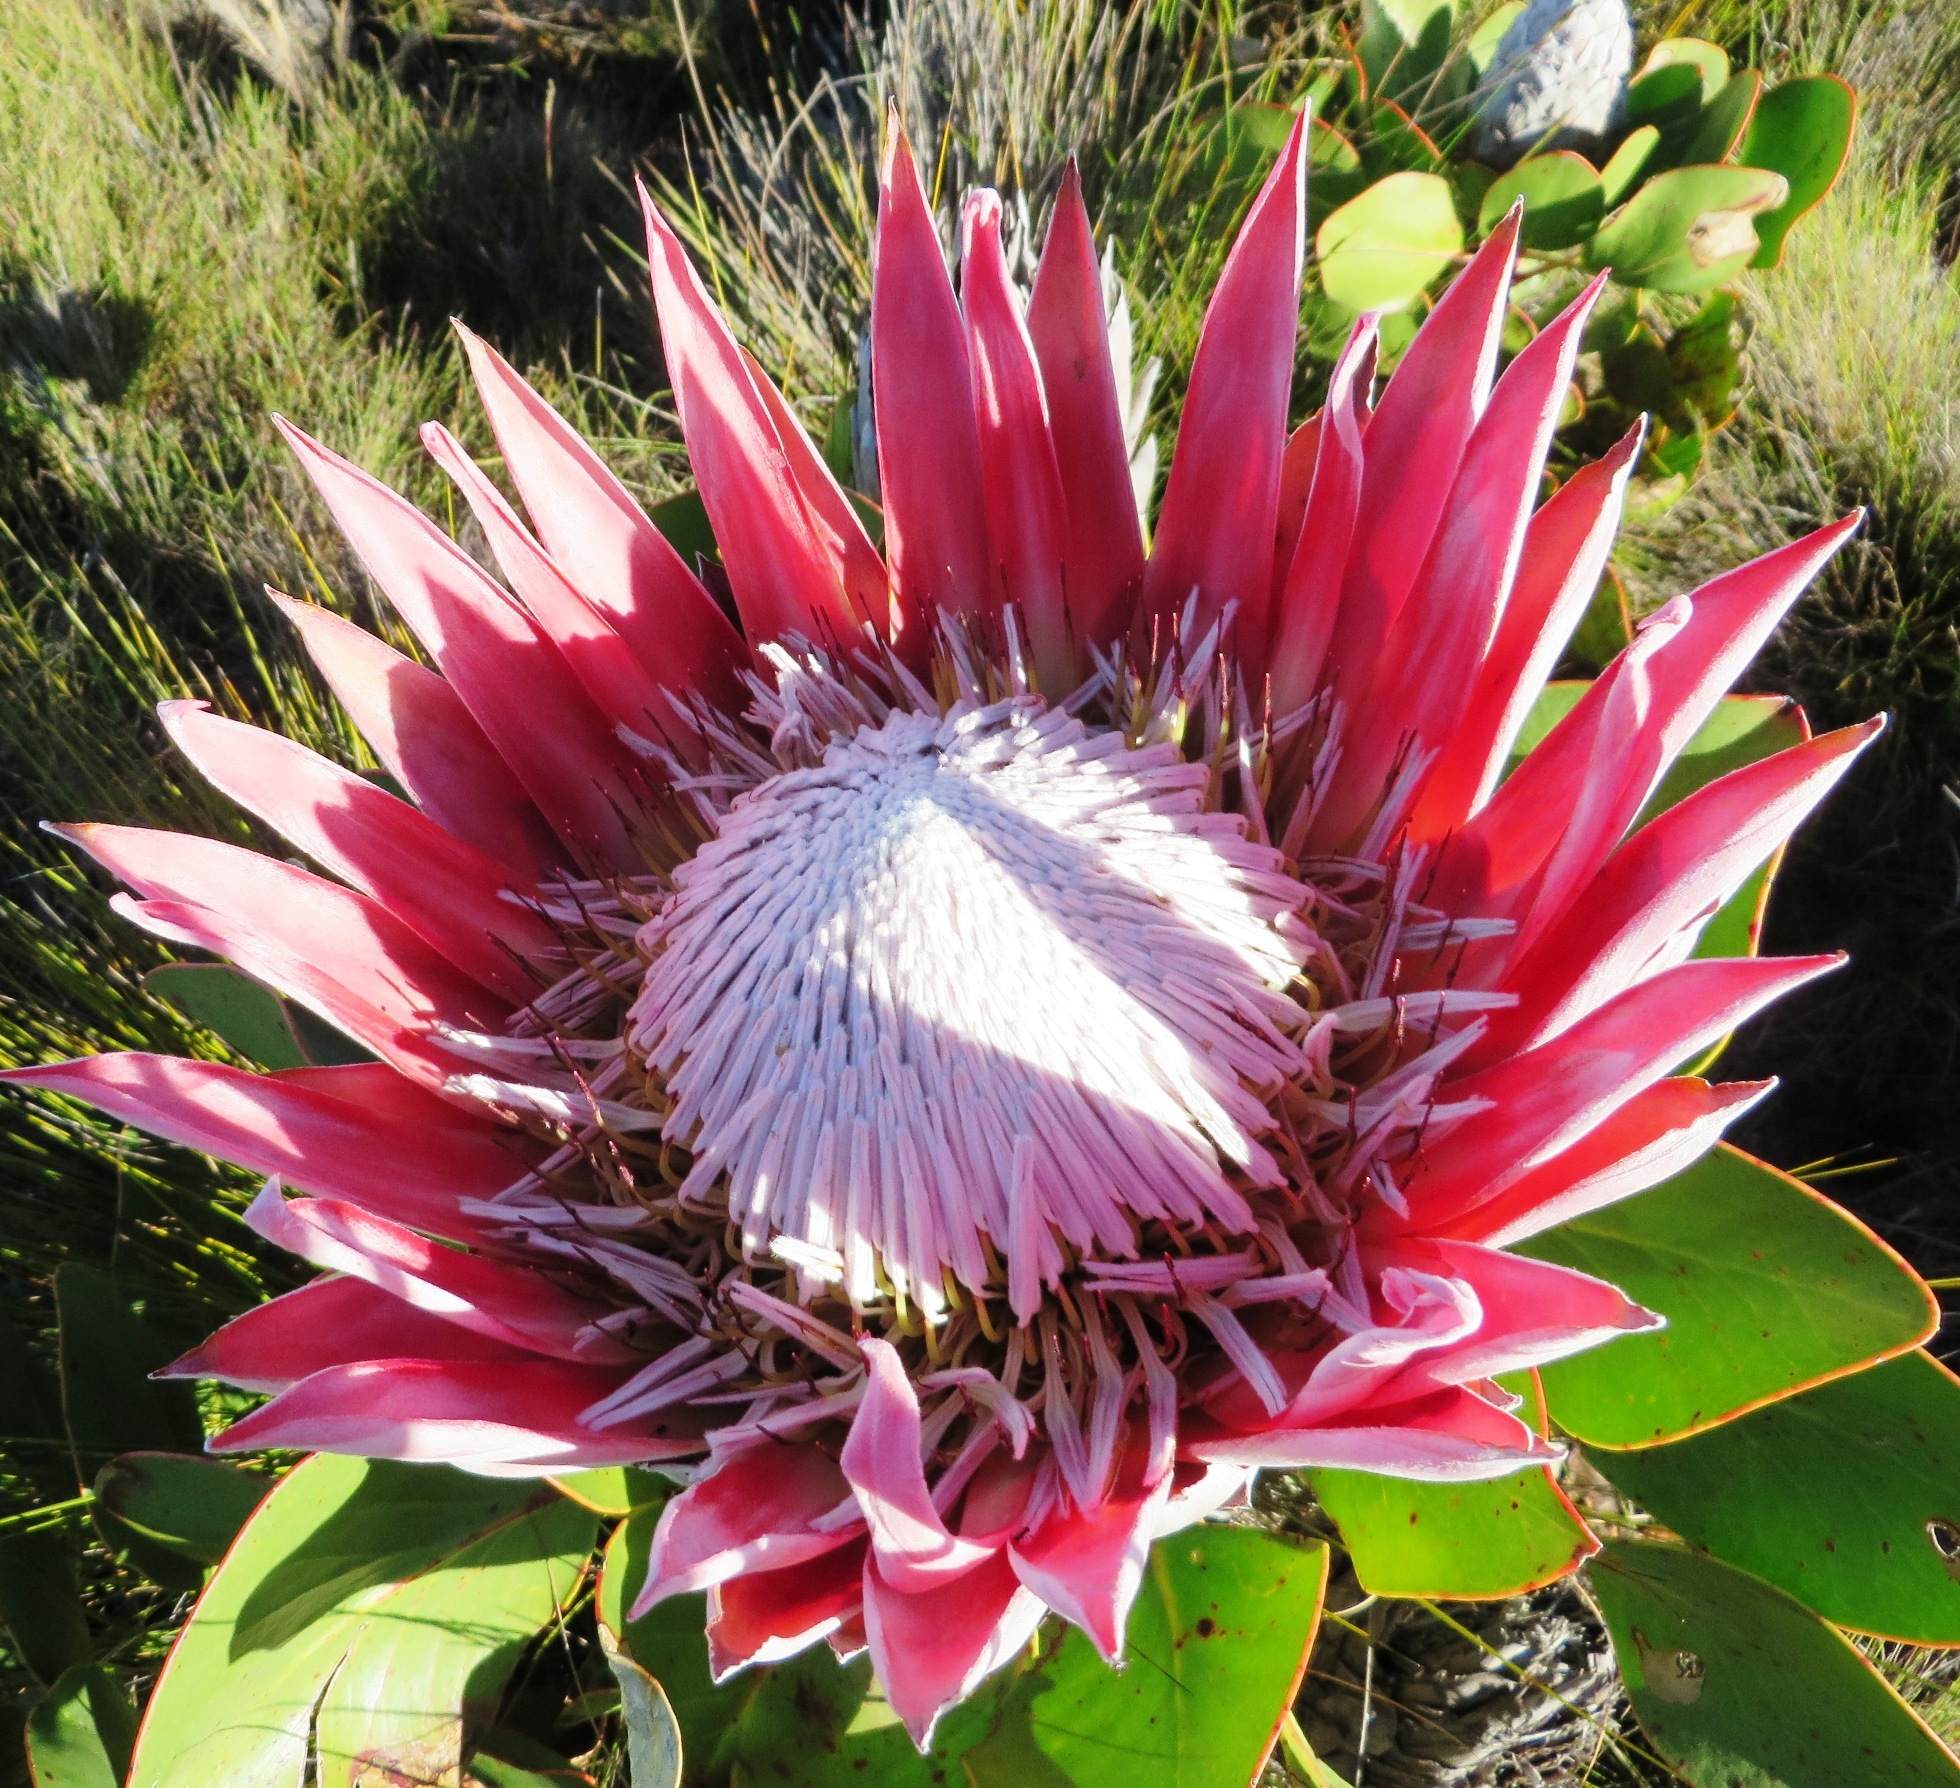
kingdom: Plantae
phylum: Tracheophyta
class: Magnoliopsida
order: Proteales
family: Proteaceae
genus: Protea
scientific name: Protea cynaroides
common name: King protea
